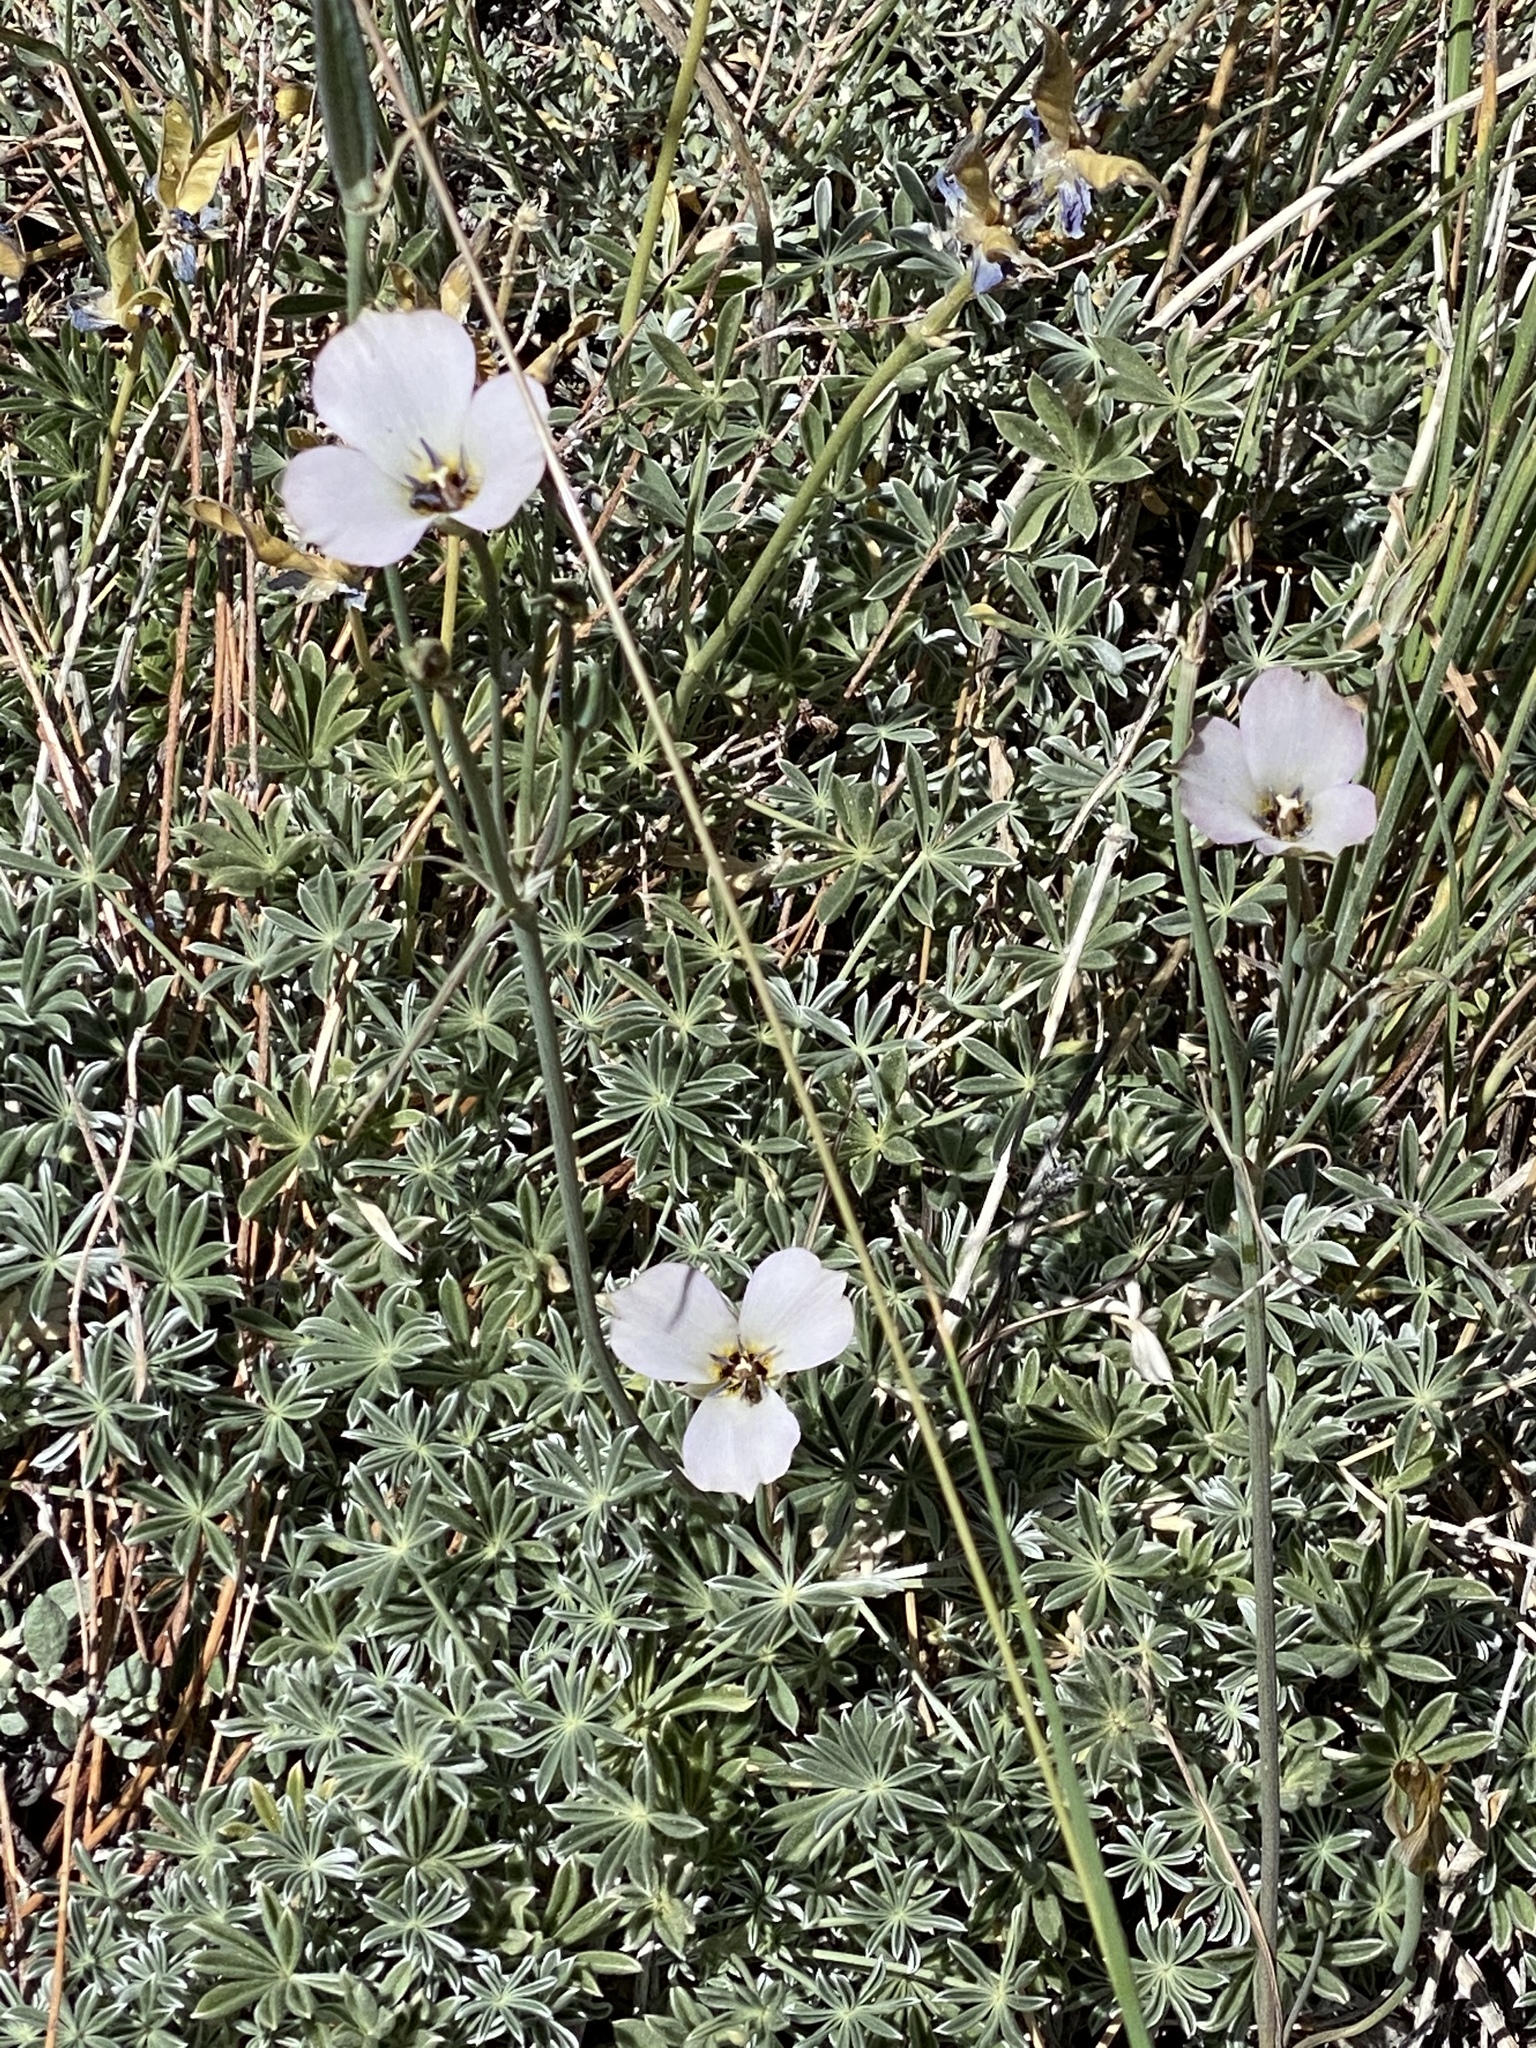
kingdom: Plantae
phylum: Tracheophyta
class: Liliopsida
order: Liliales
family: Liliaceae
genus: Calochortus
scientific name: Calochortus invenustus
